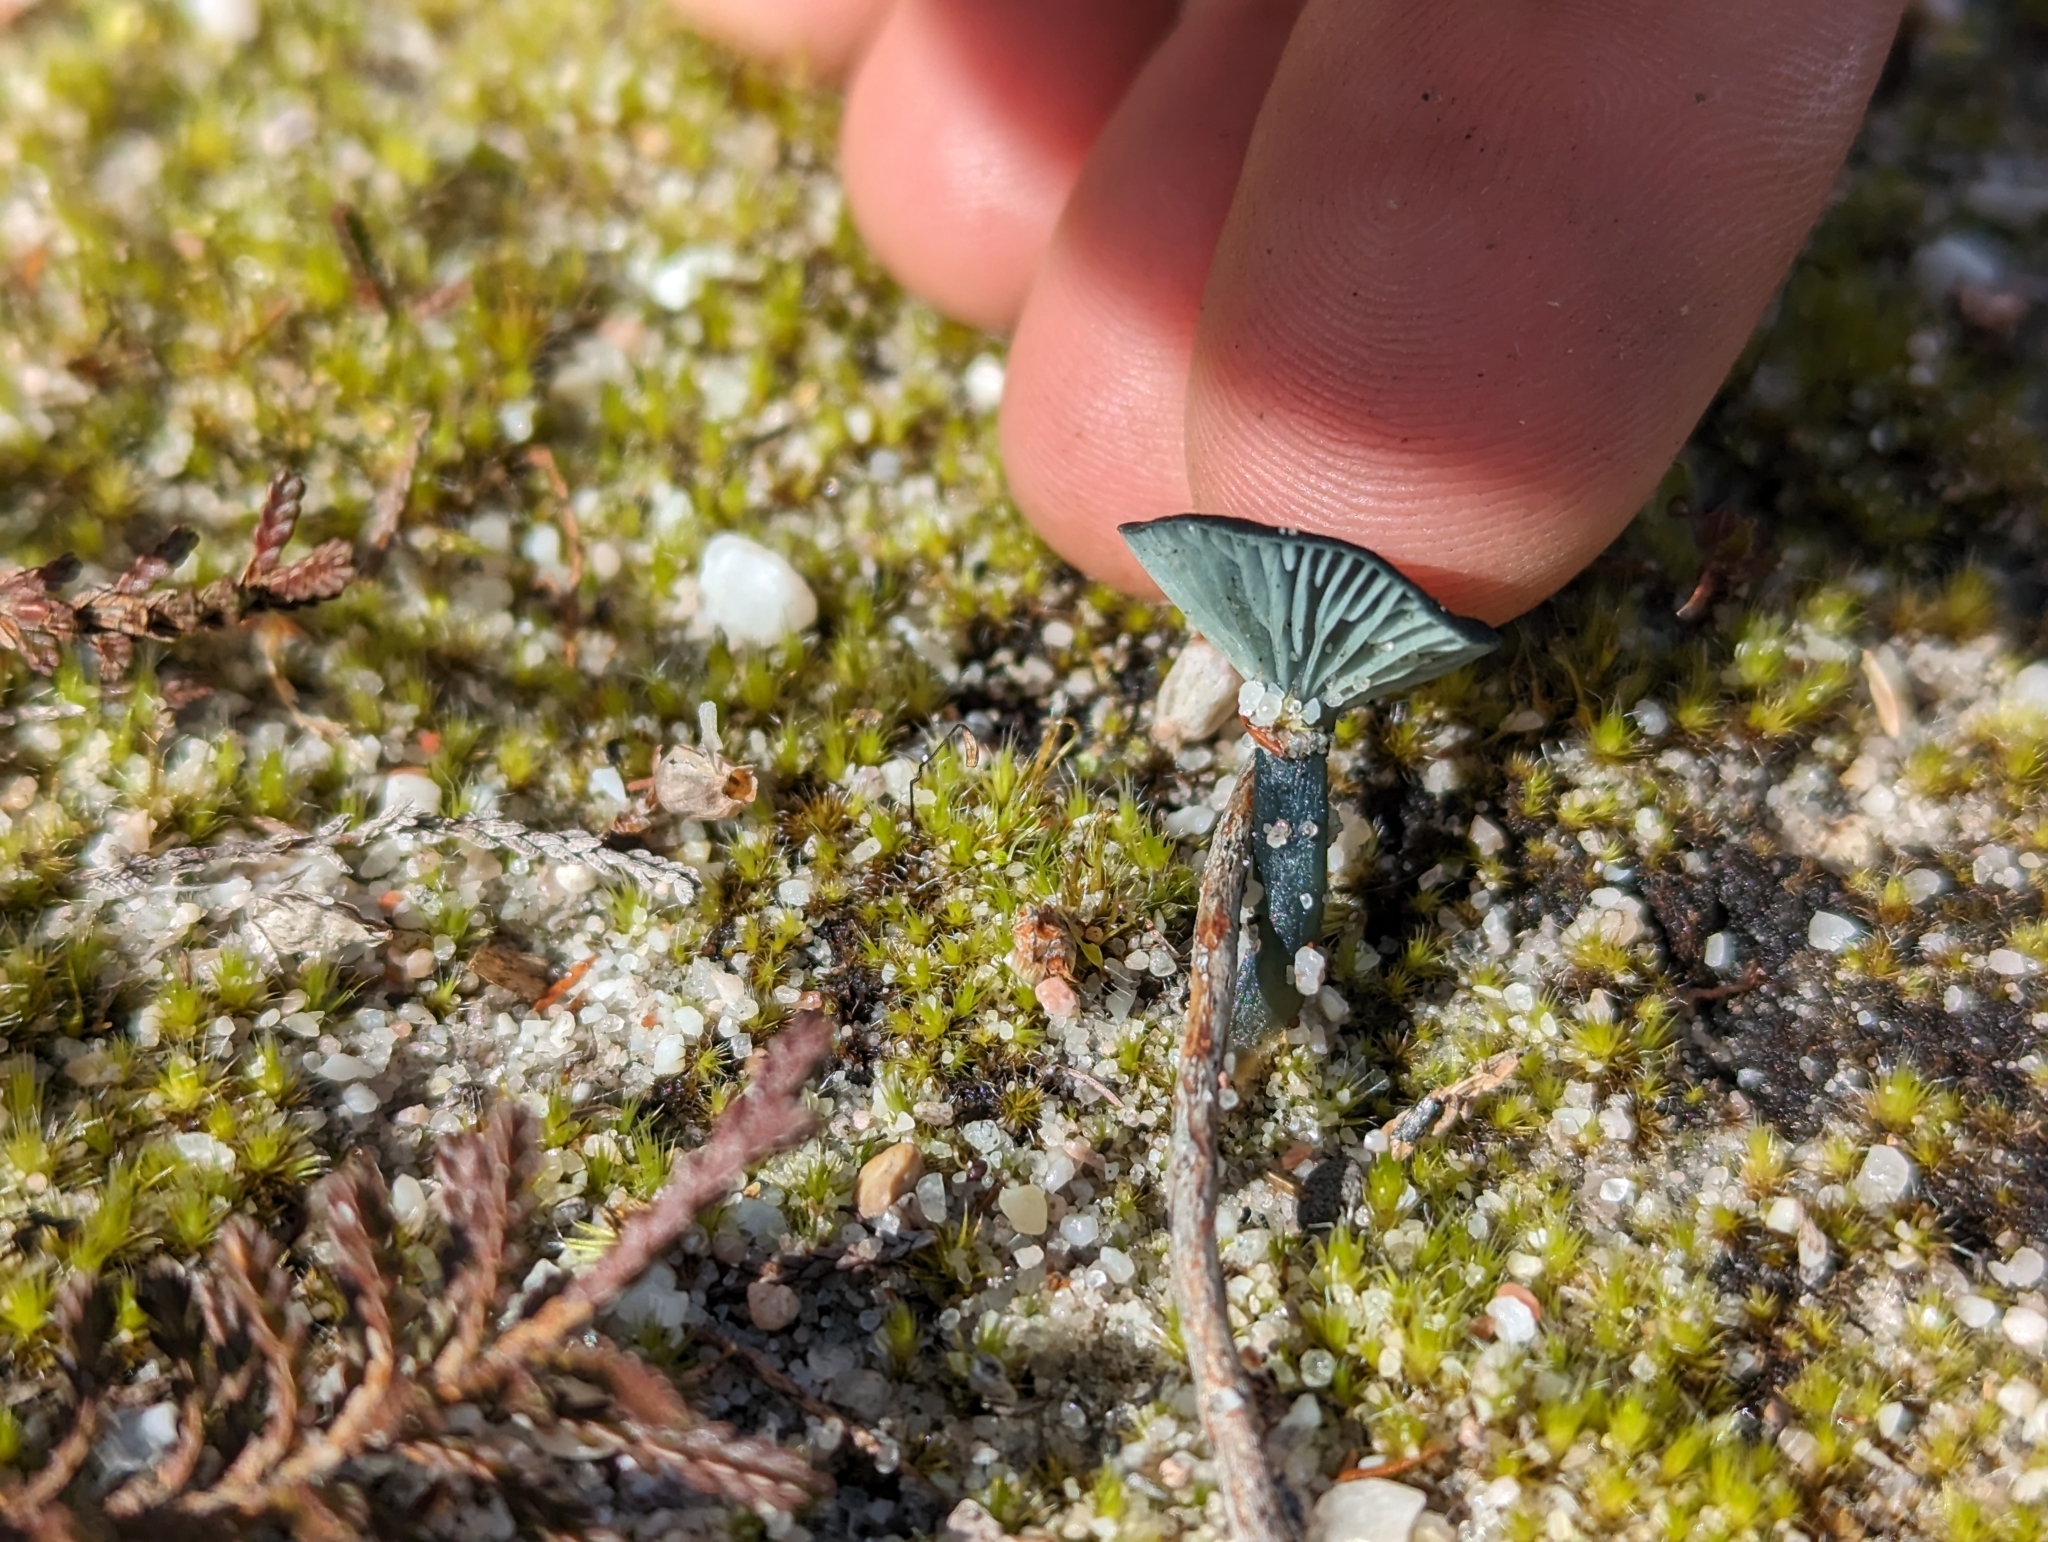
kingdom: Fungi
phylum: Basidiomycota
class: Agaricomycetes
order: Agaricales
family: Hygrophoraceae
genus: Arrhenia
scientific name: Arrhenia chlorocyanea
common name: Verdigris navel
